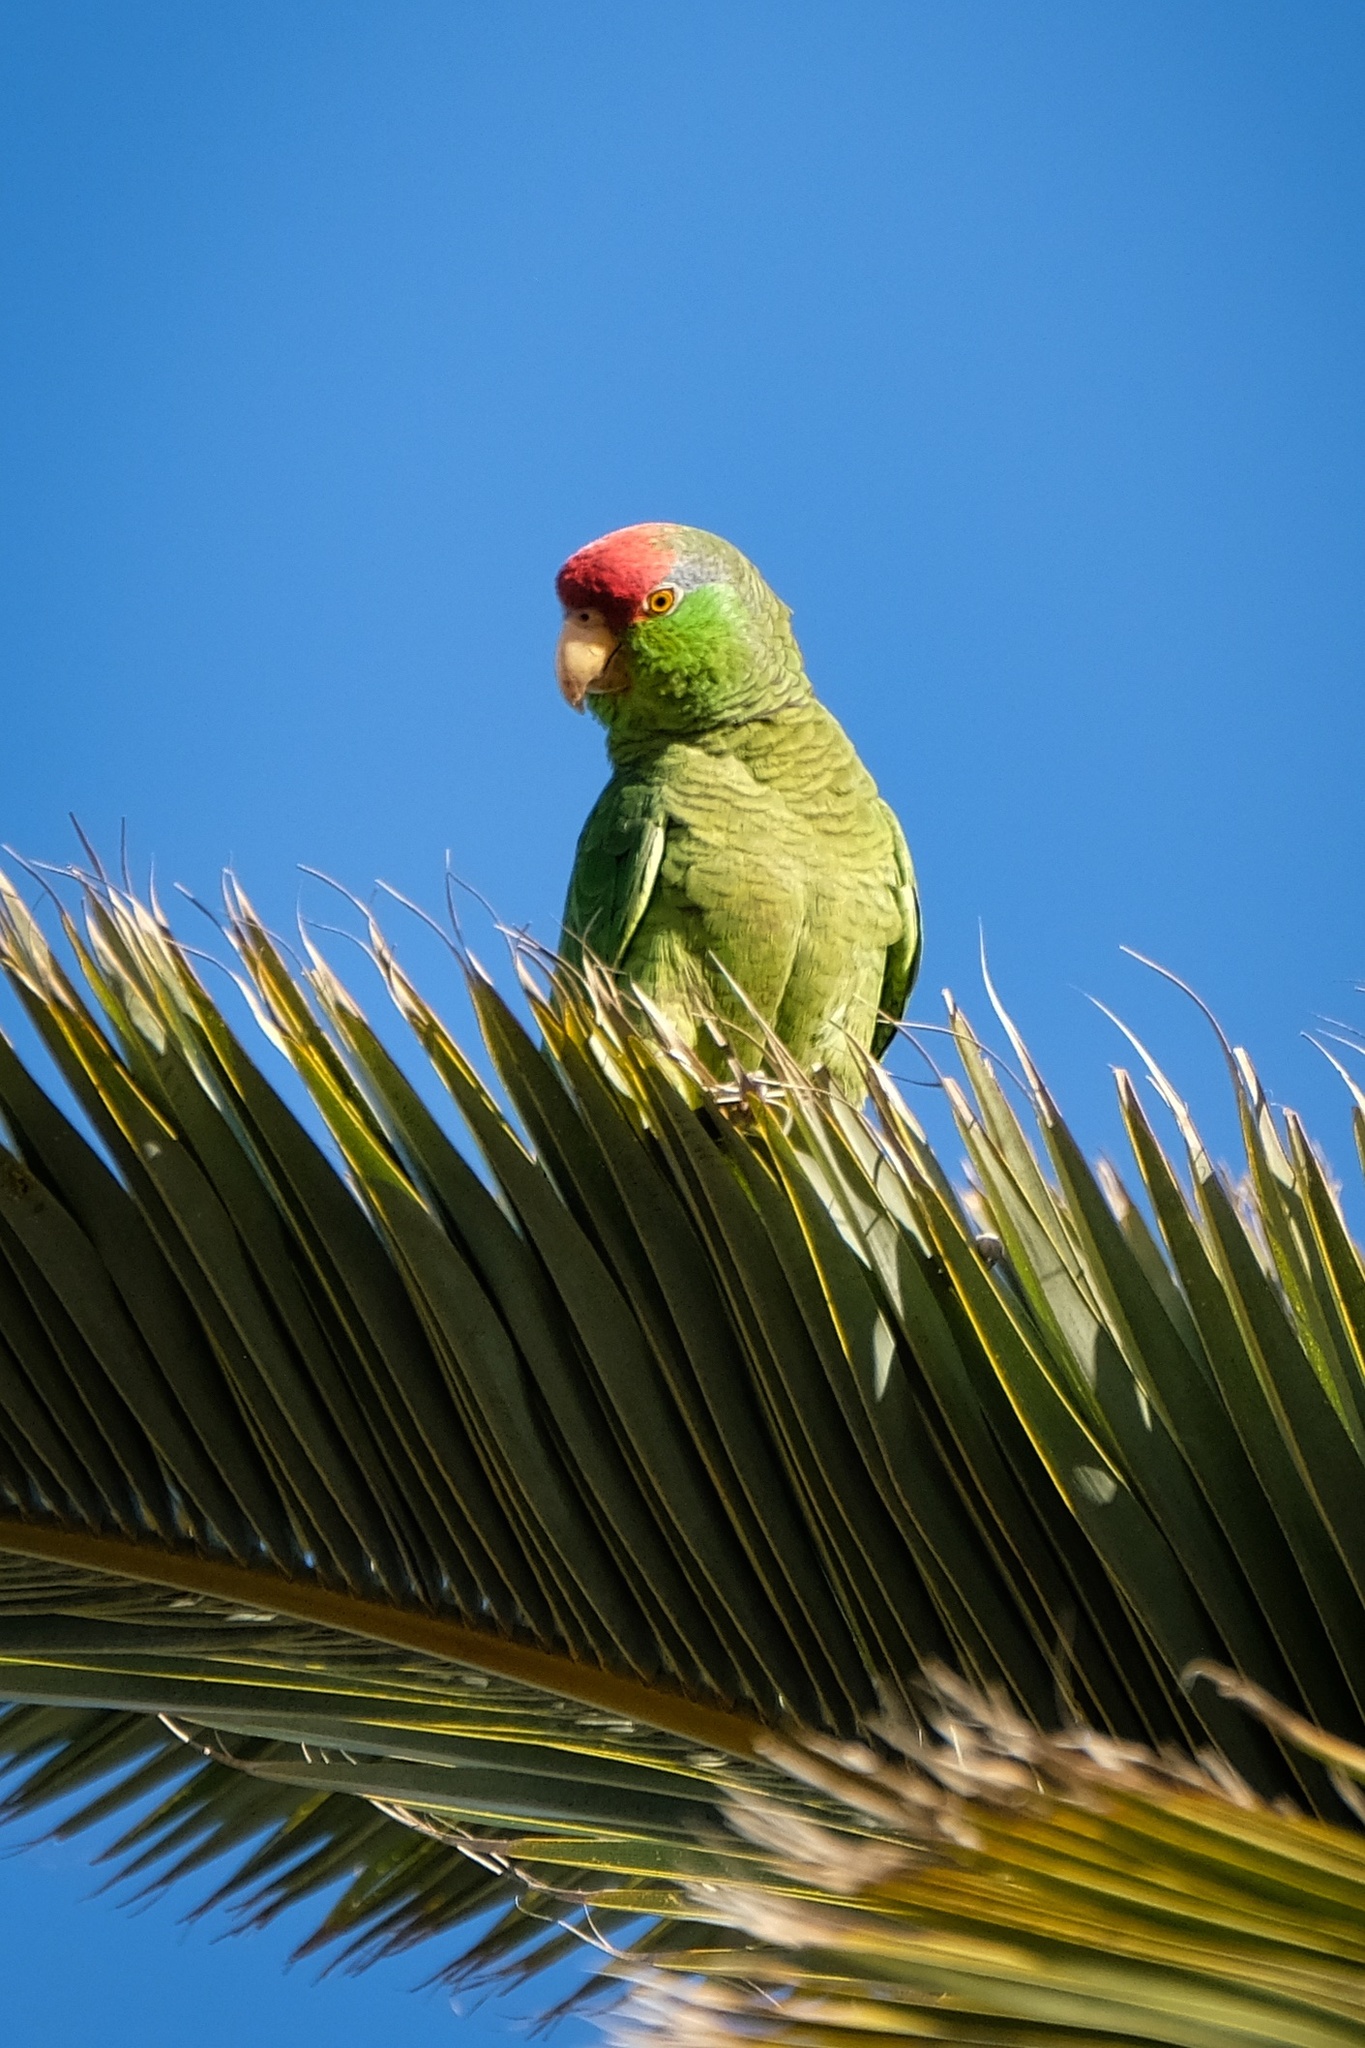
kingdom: Animalia
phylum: Chordata
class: Aves
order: Psittaciformes
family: Psittacidae
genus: Amazona
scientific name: Amazona viridigenalis
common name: Red-crowned amazon
